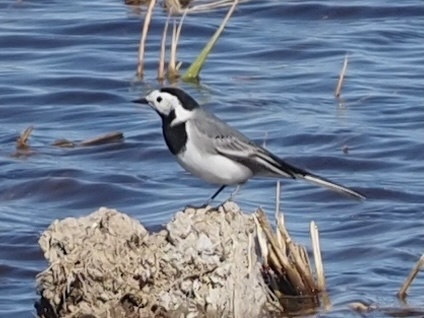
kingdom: Animalia
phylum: Chordata
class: Aves
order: Passeriformes
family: Motacillidae
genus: Motacilla
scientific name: Motacilla alba
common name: White wagtail
